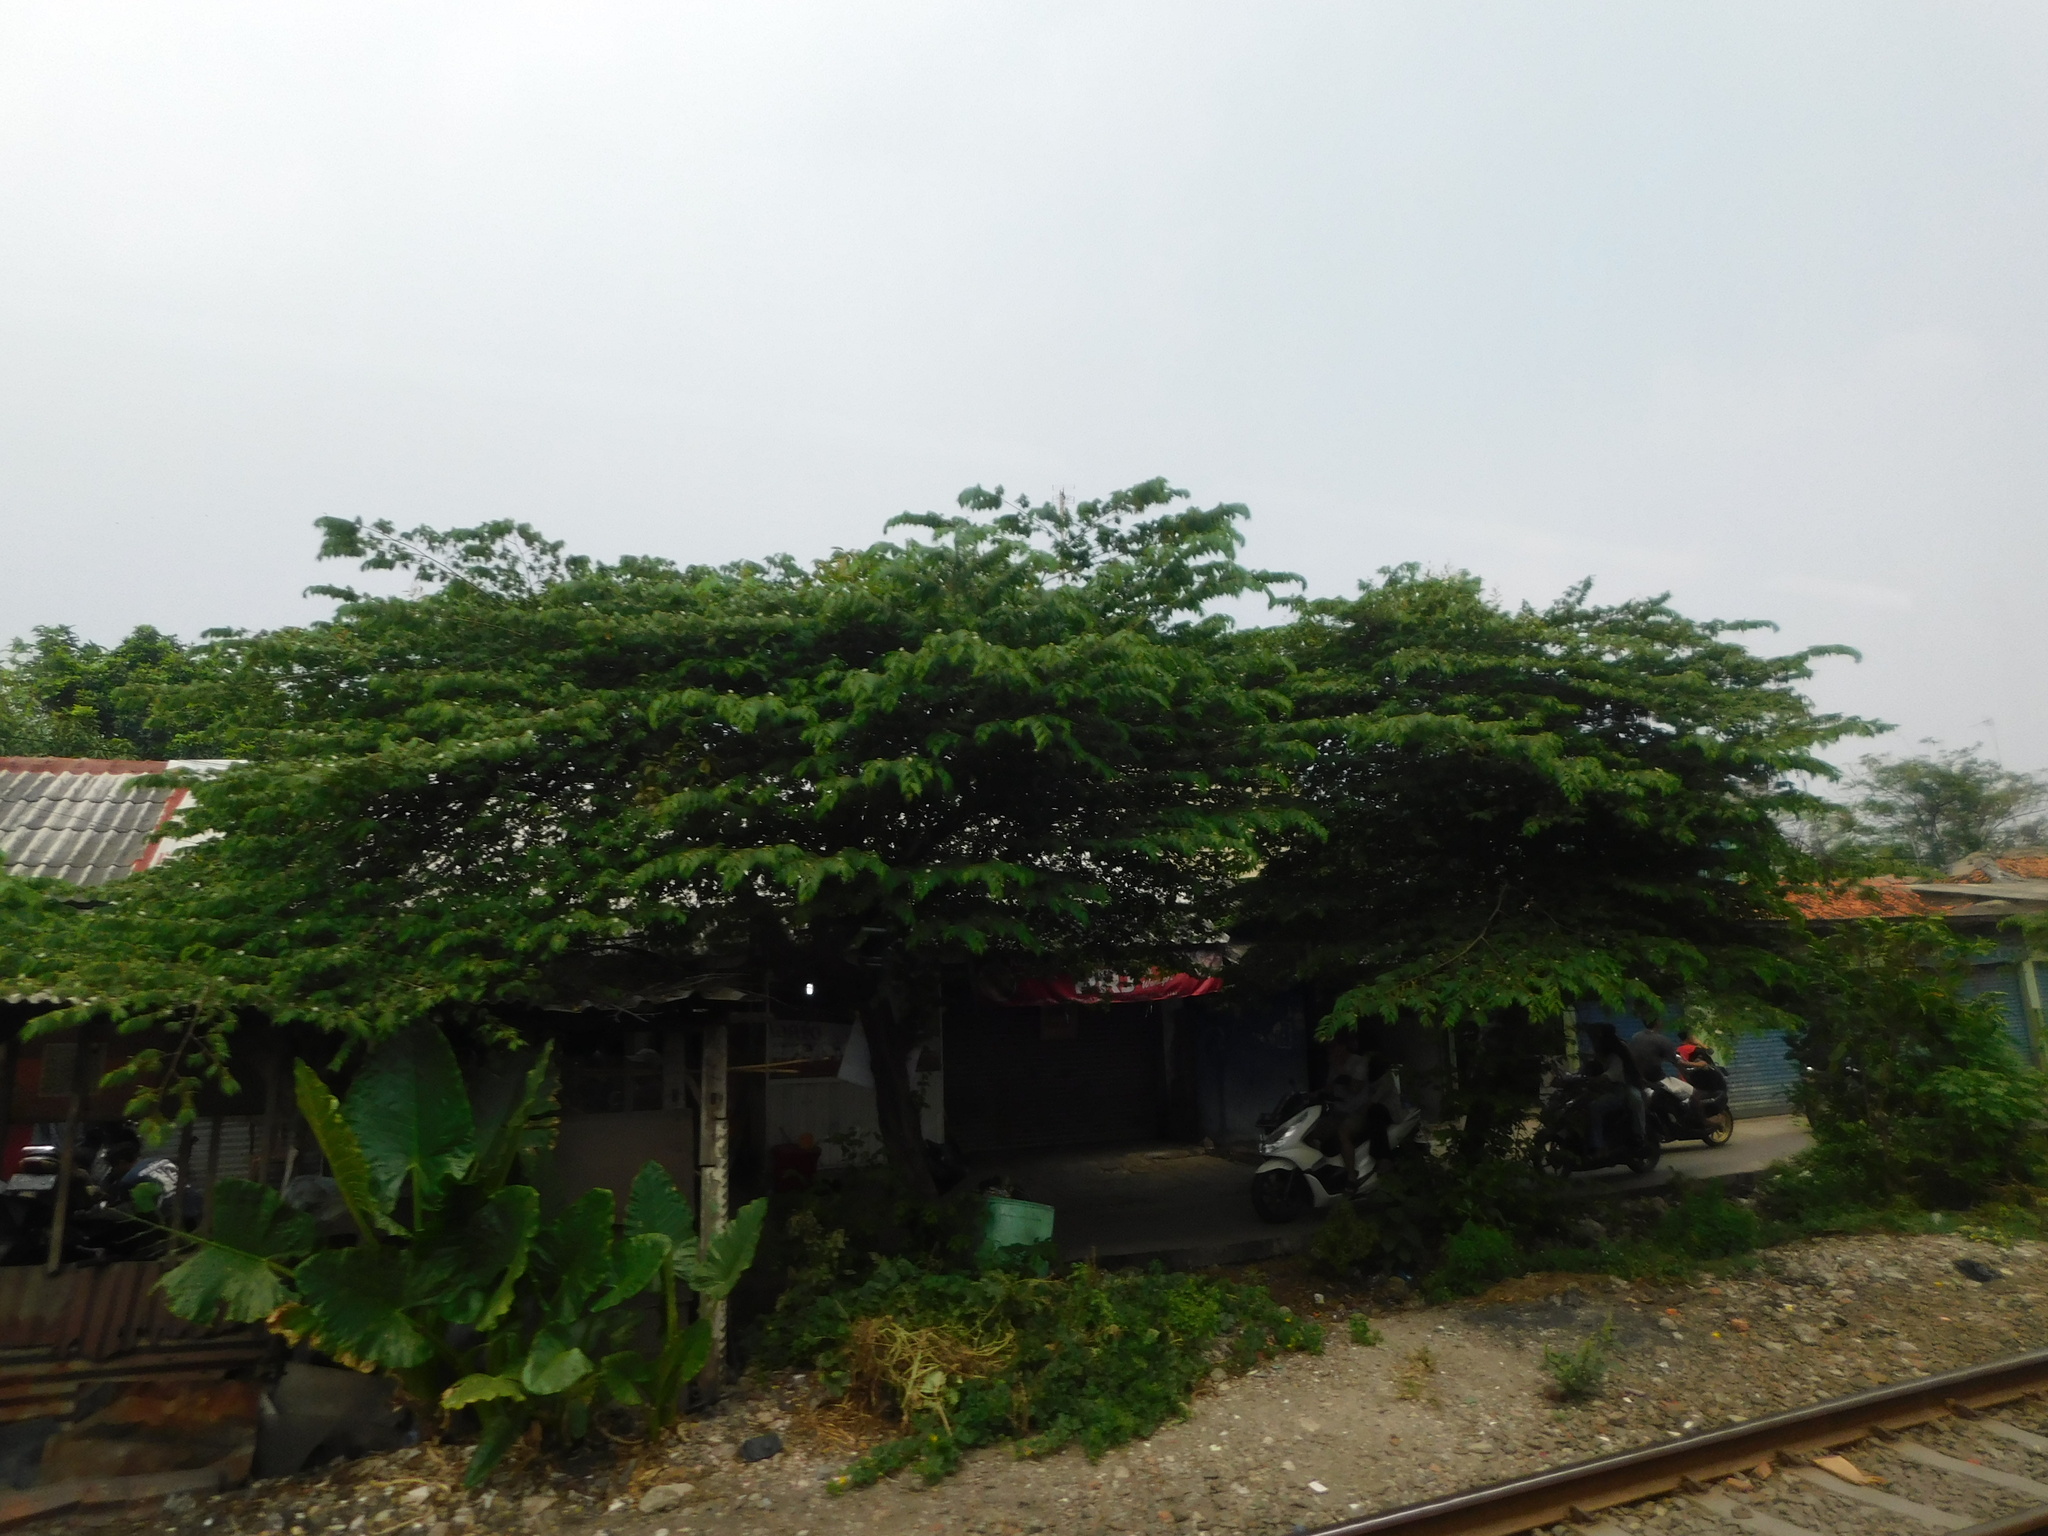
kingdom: Plantae
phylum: Tracheophyta
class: Magnoliopsida
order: Malvales
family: Muntingiaceae
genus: Muntingia
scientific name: Muntingia calabura
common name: Strawberrytree
